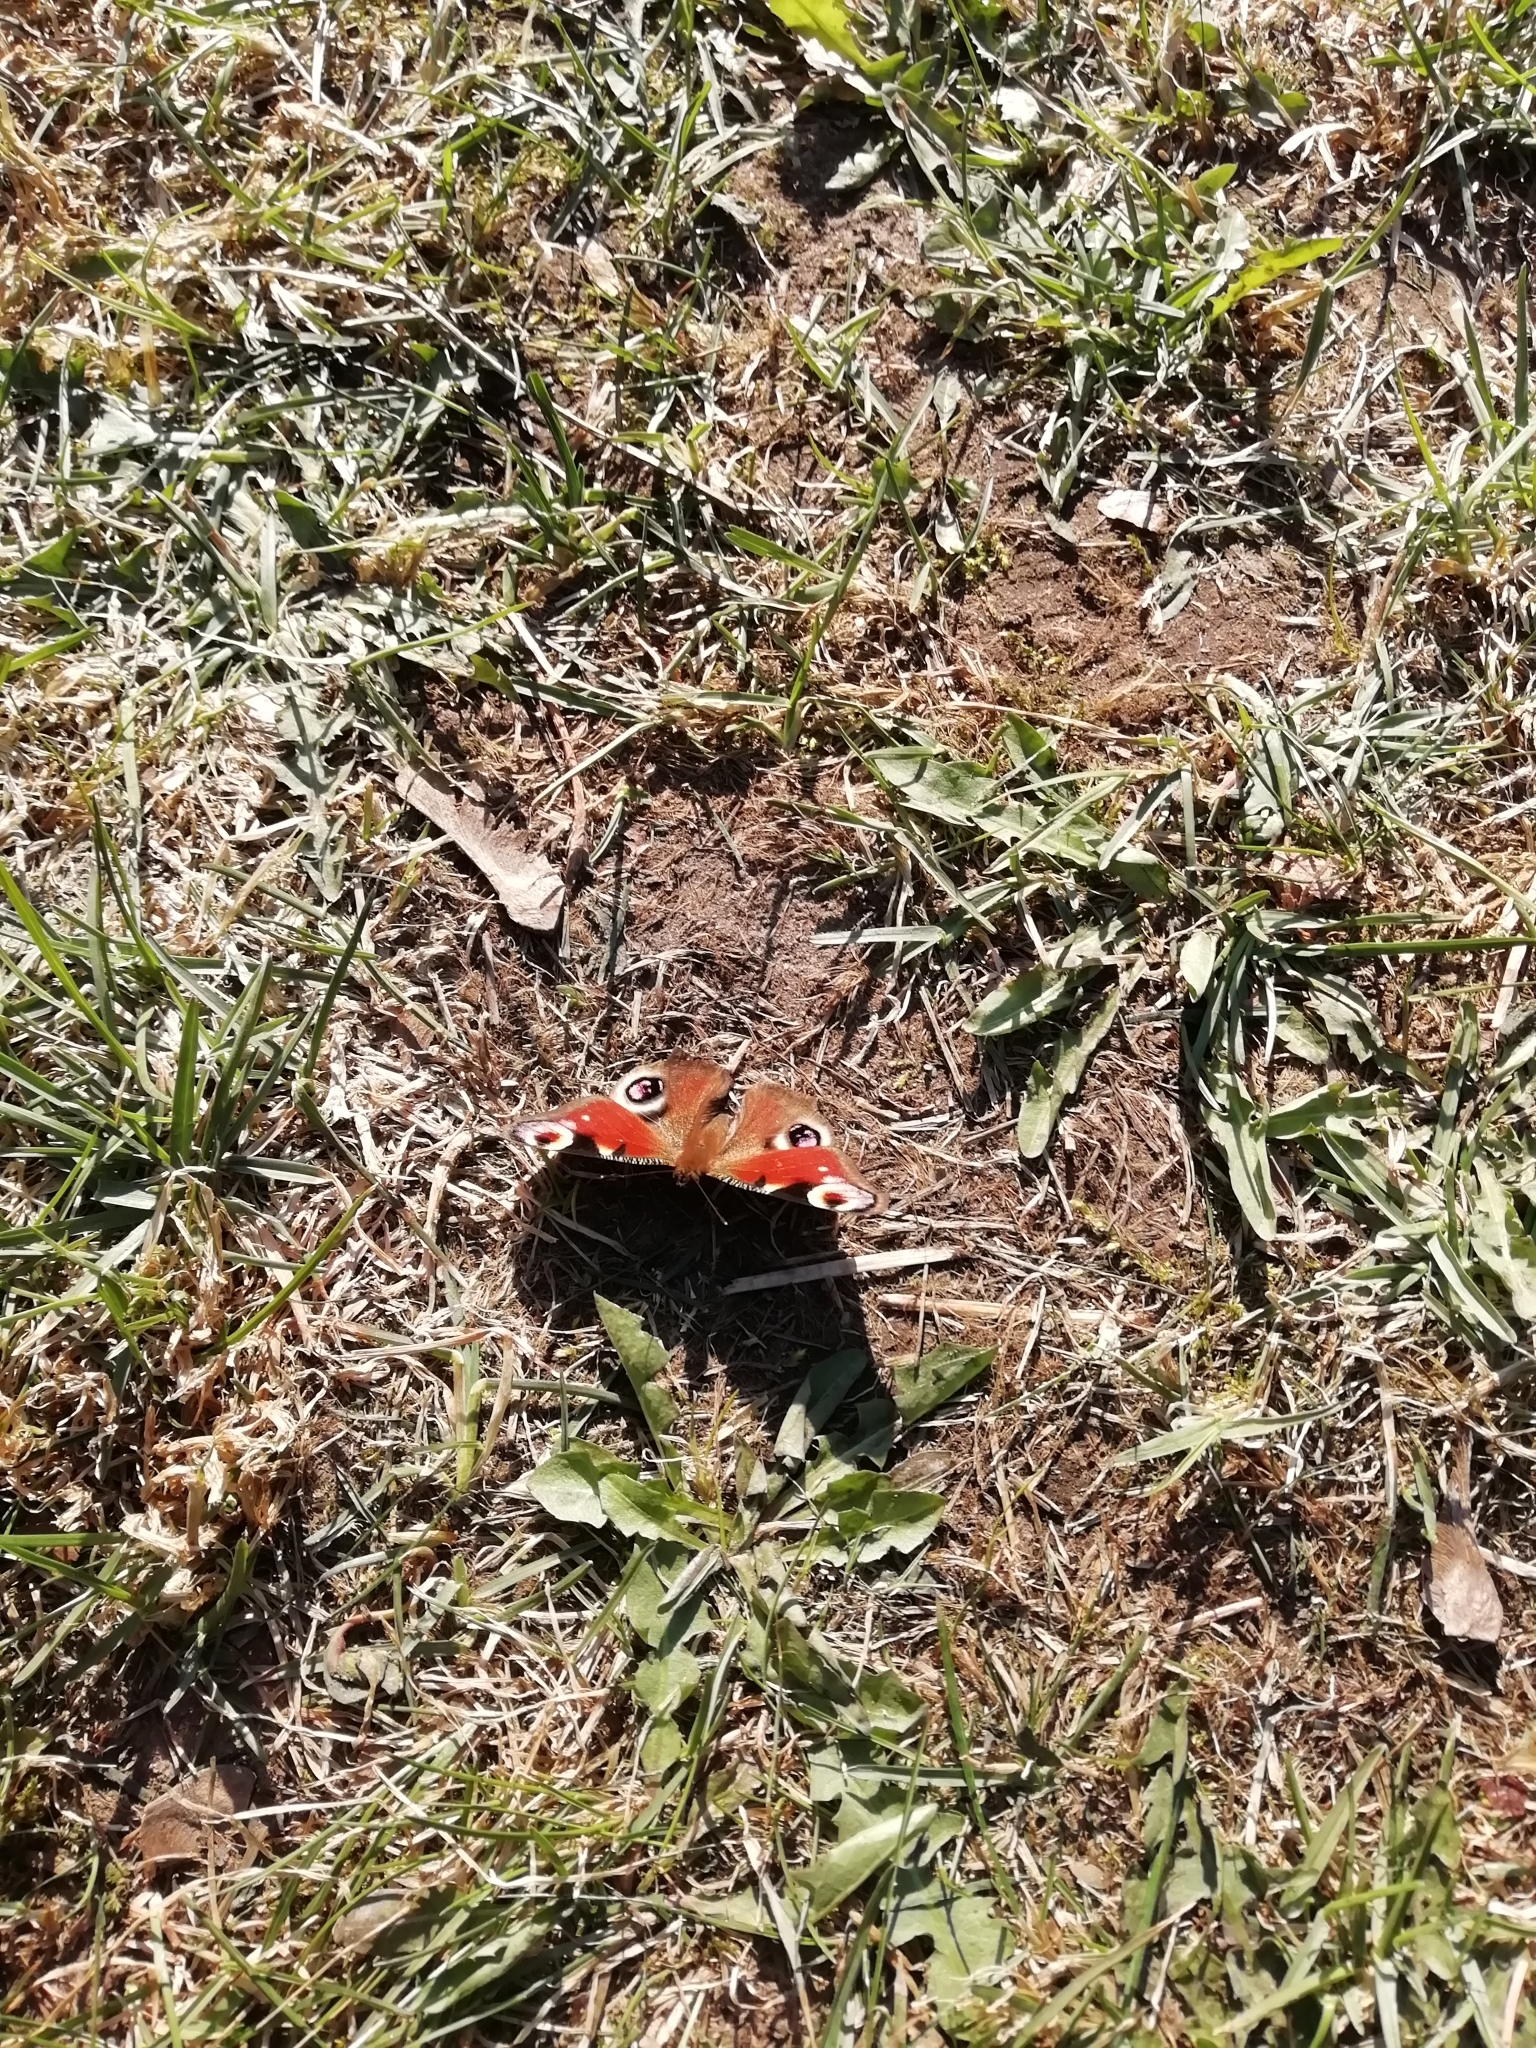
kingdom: Animalia
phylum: Arthropoda
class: Insecta
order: Lepidoptera
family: Nymphalidae
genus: Aglais
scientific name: Aglais io
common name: Peacock
